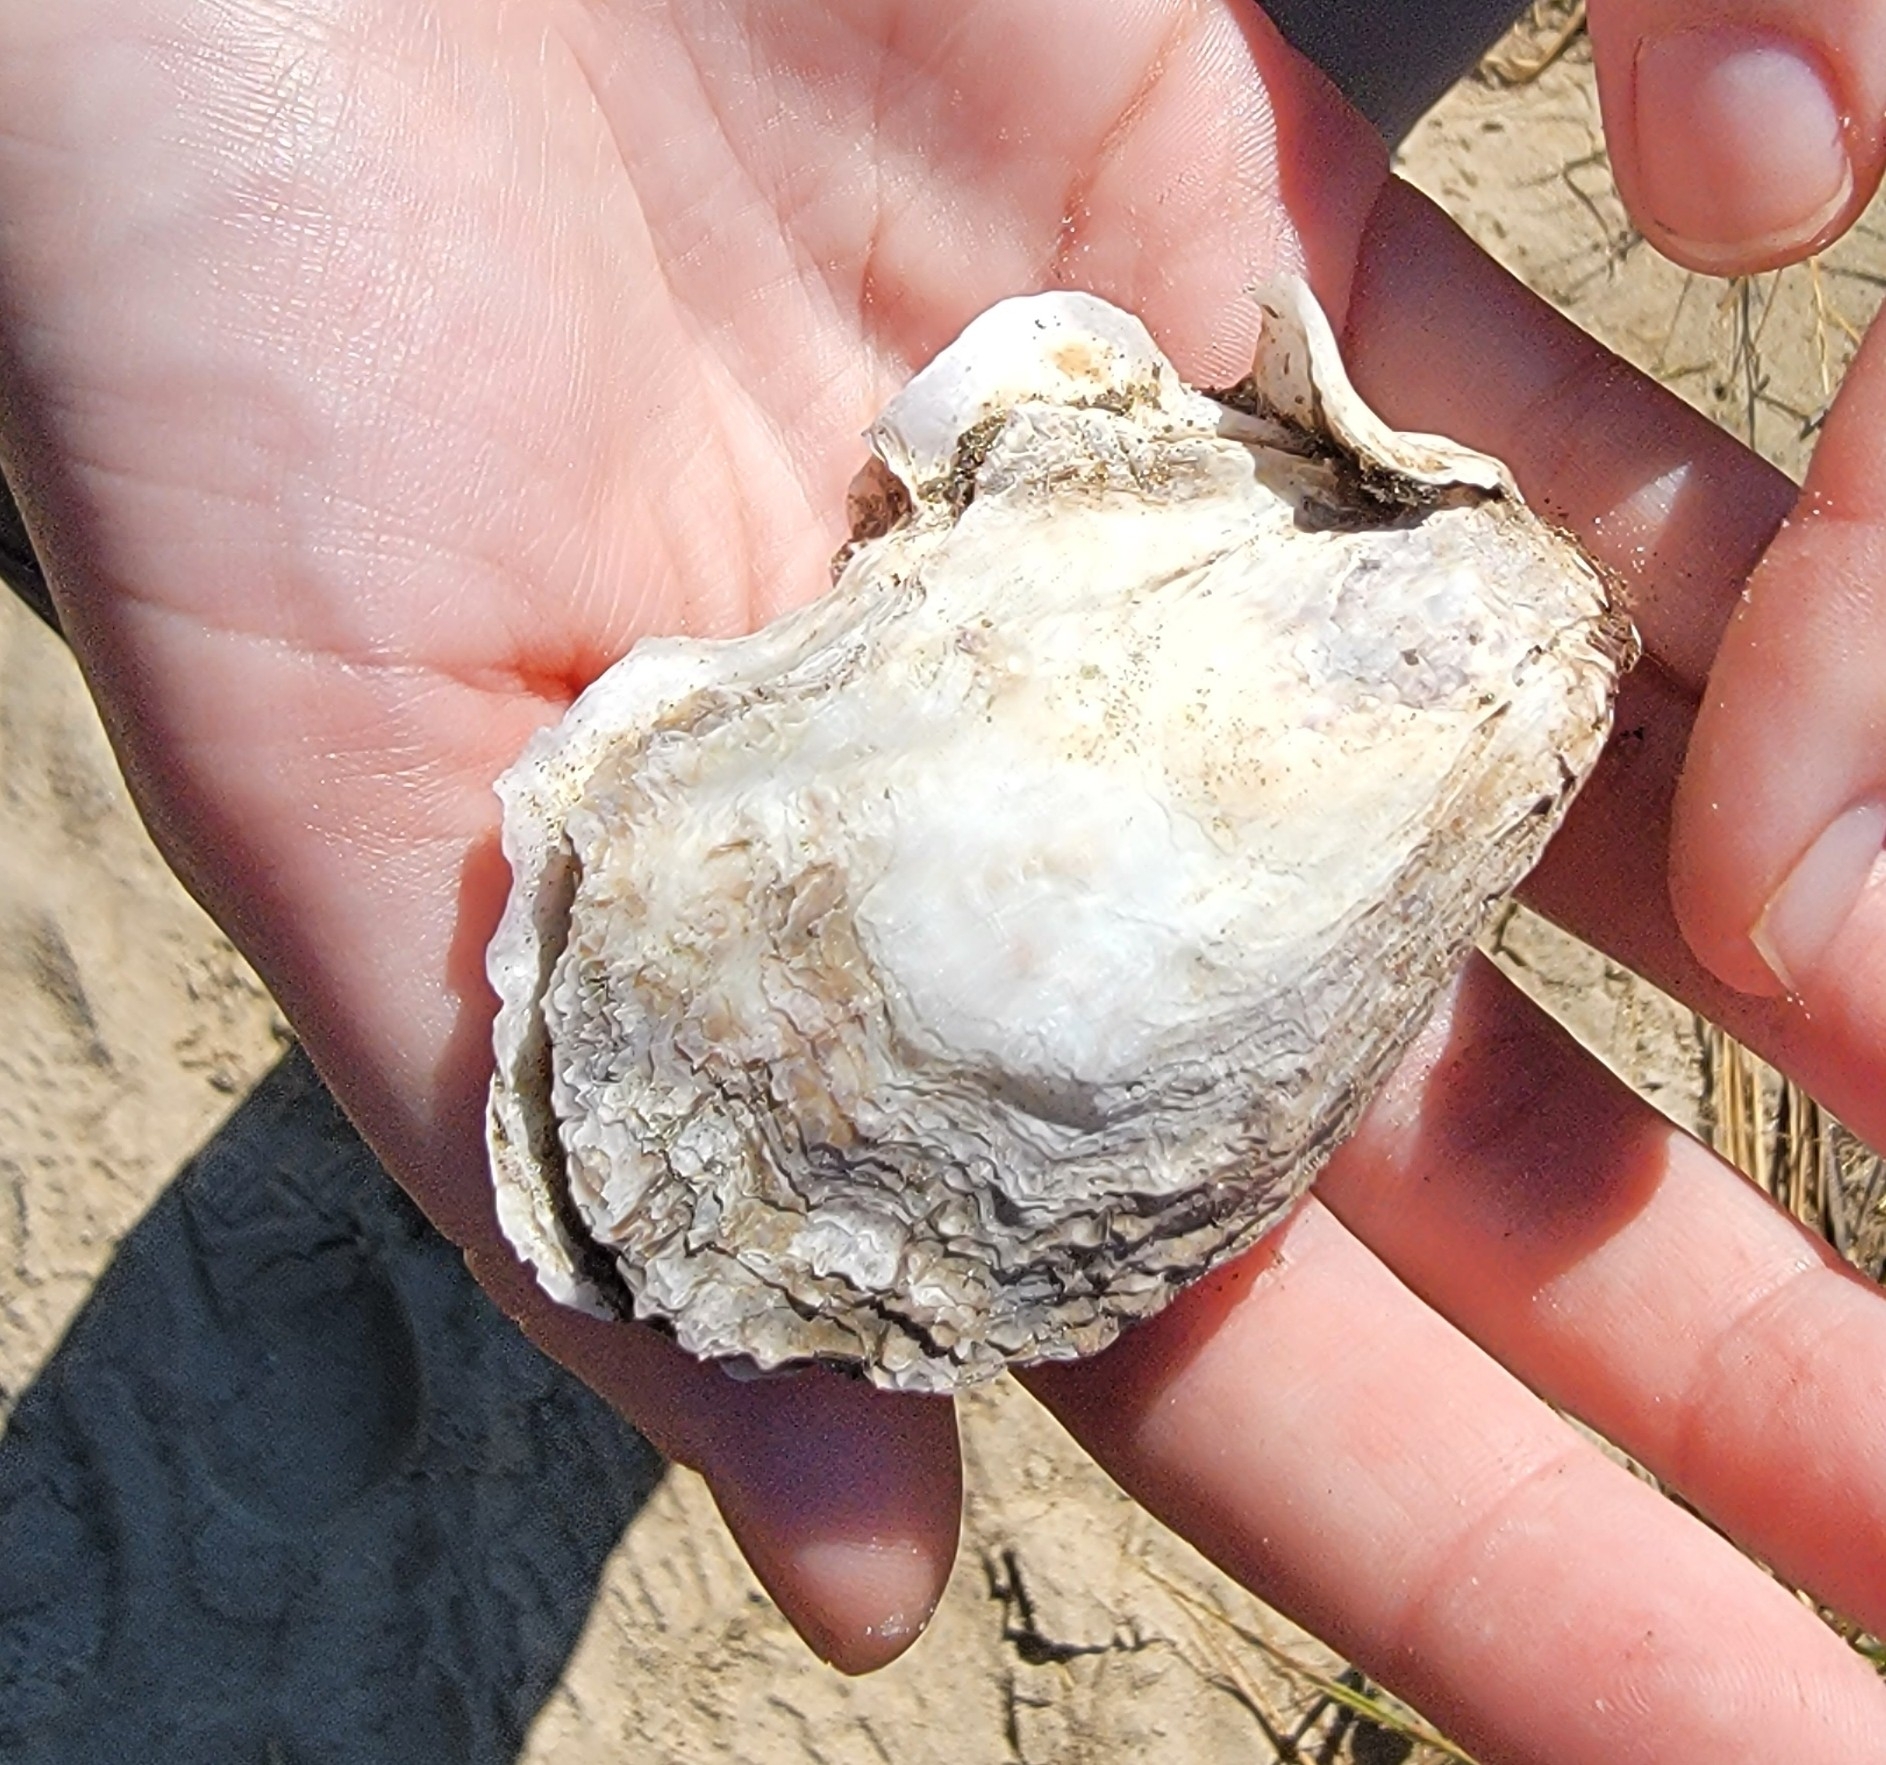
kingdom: Animalia
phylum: Mollusca
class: Bivalvia
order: Ostreida
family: Ostreidae
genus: Crassostrea
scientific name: Crassostrea virginica
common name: American oyster
